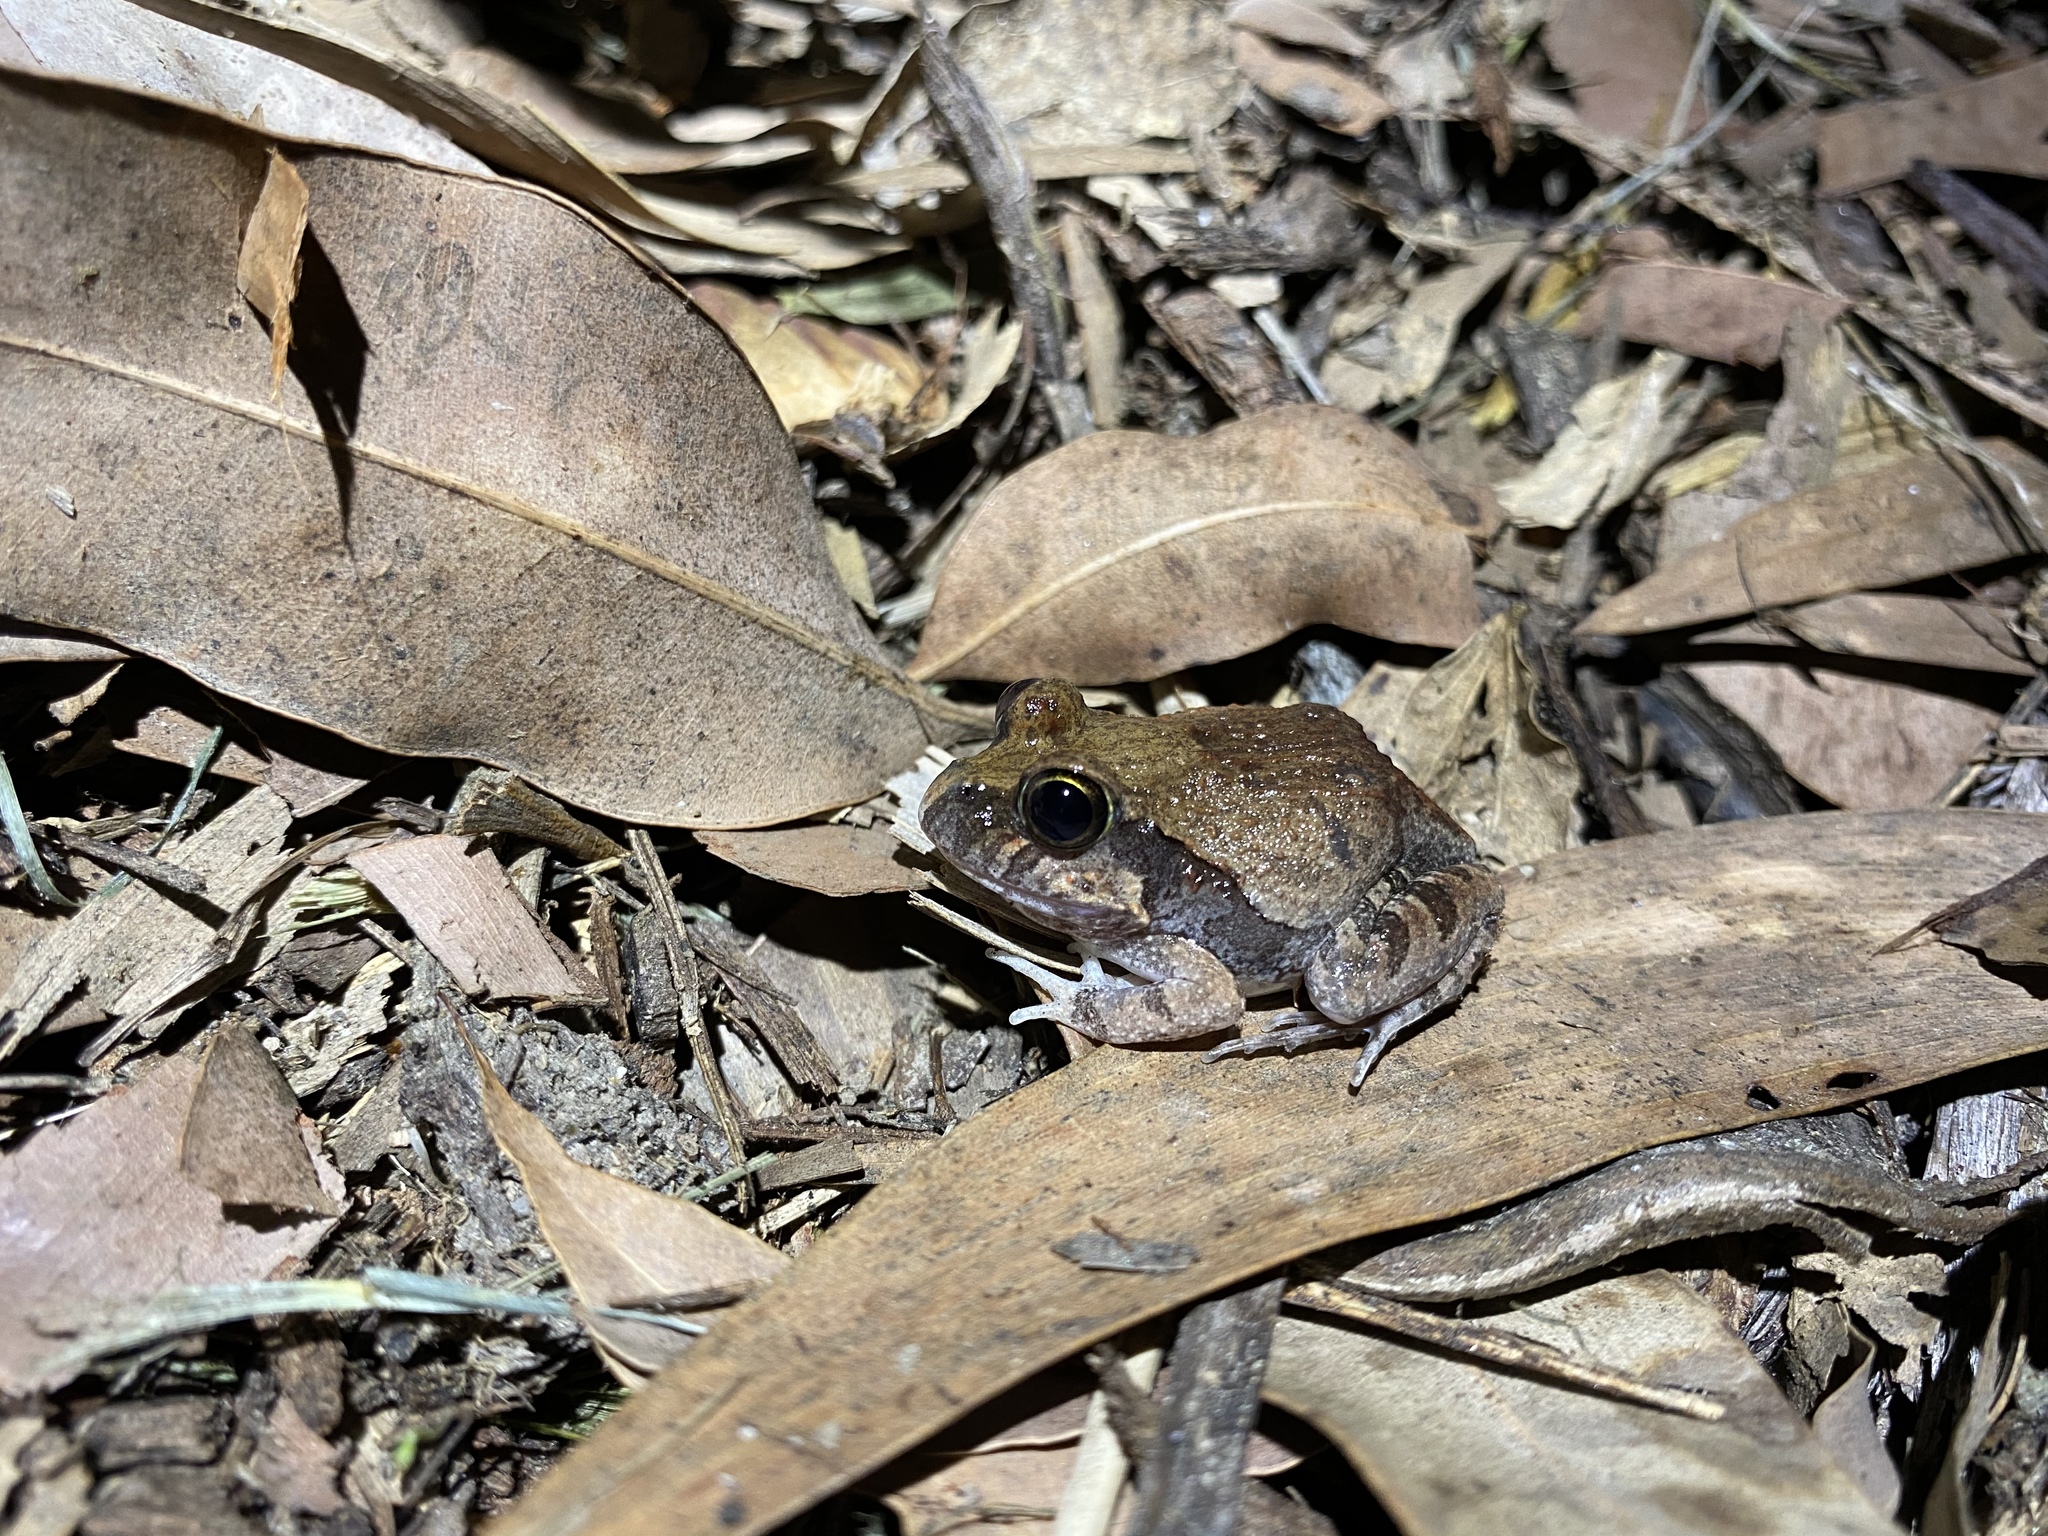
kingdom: Animalia
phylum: Chordata
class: Amphibia
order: Anura
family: Limnodynastidae
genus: Platyplectrum
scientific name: Platyplectrum ornatum
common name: Ornate burrowing frog
